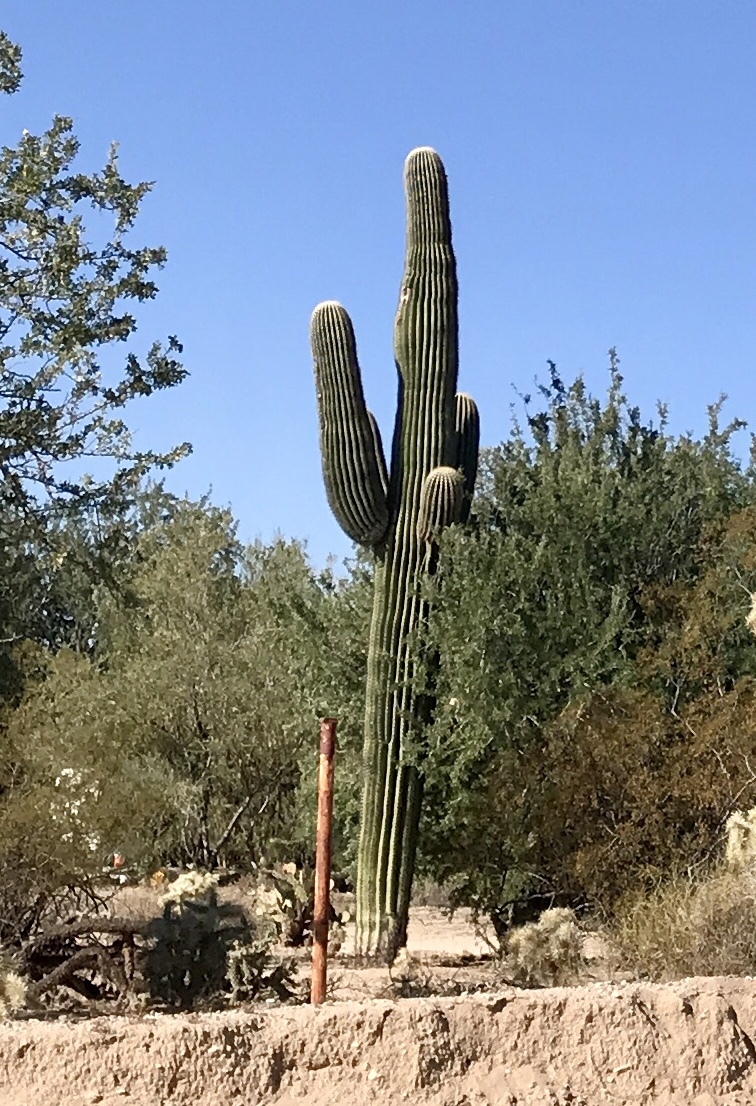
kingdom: Plantae
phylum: Tracheophyta
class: Magnoliopsida
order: Caryophyllales
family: Cactaceae
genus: Carnegiea
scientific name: Carnegiea gigantea
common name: Saguaro
